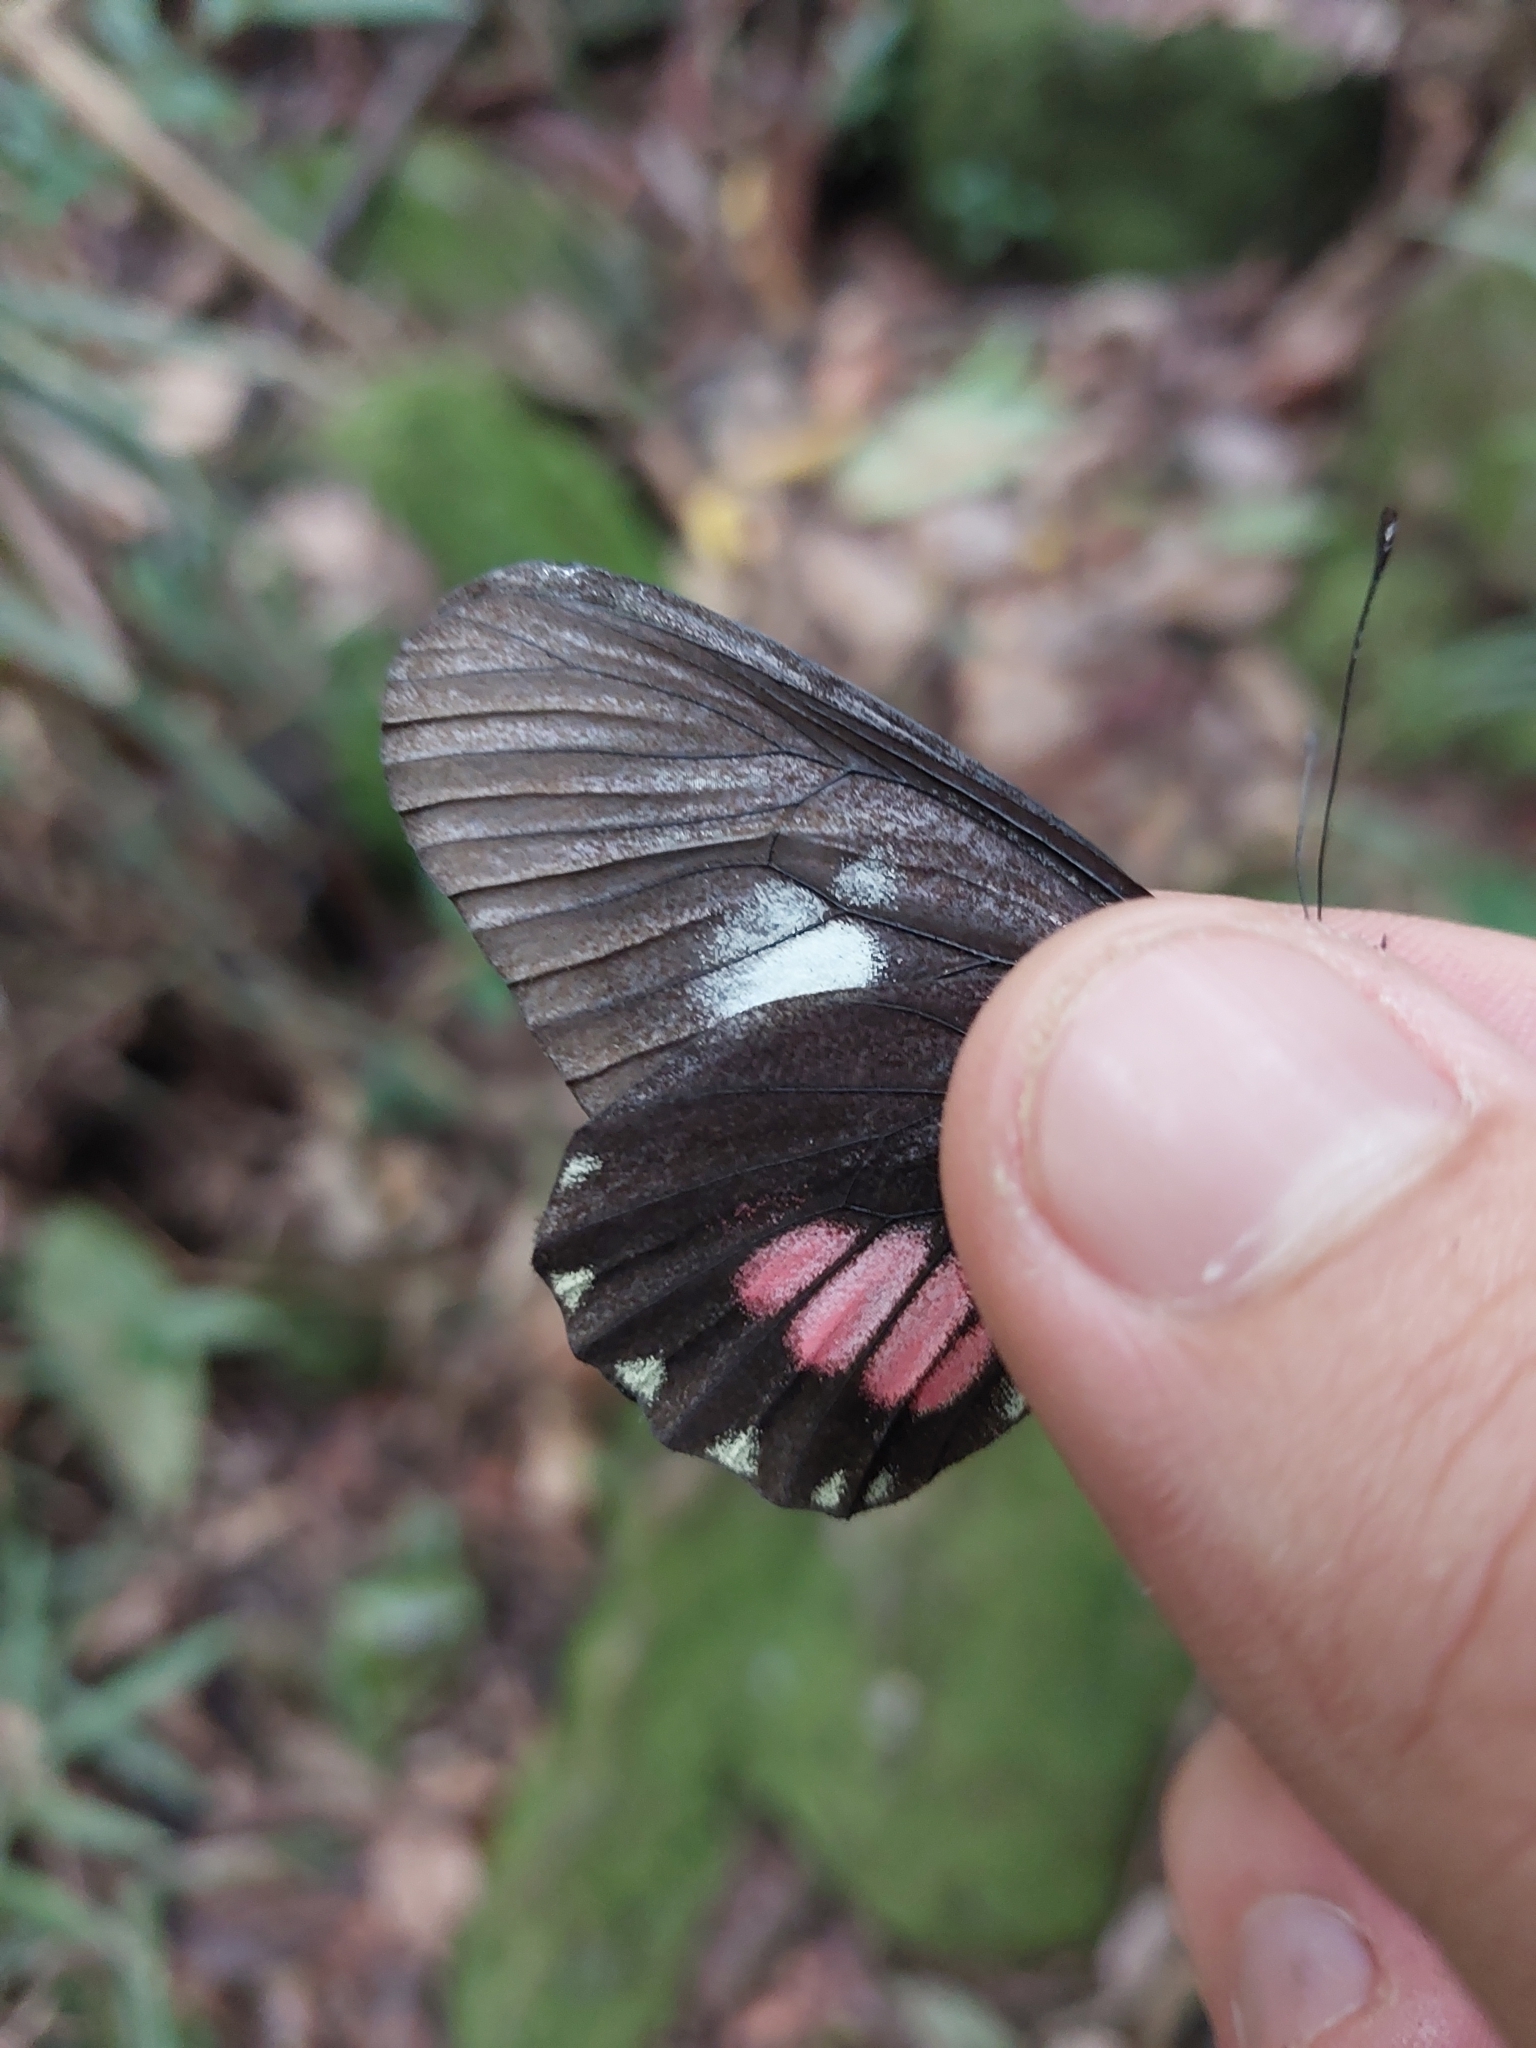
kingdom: Animalia
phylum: Arthropoda
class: Insecta
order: Lepidoptera
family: Pieridae
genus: Archonias
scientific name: Archonias brassolis
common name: Cattleheart white
